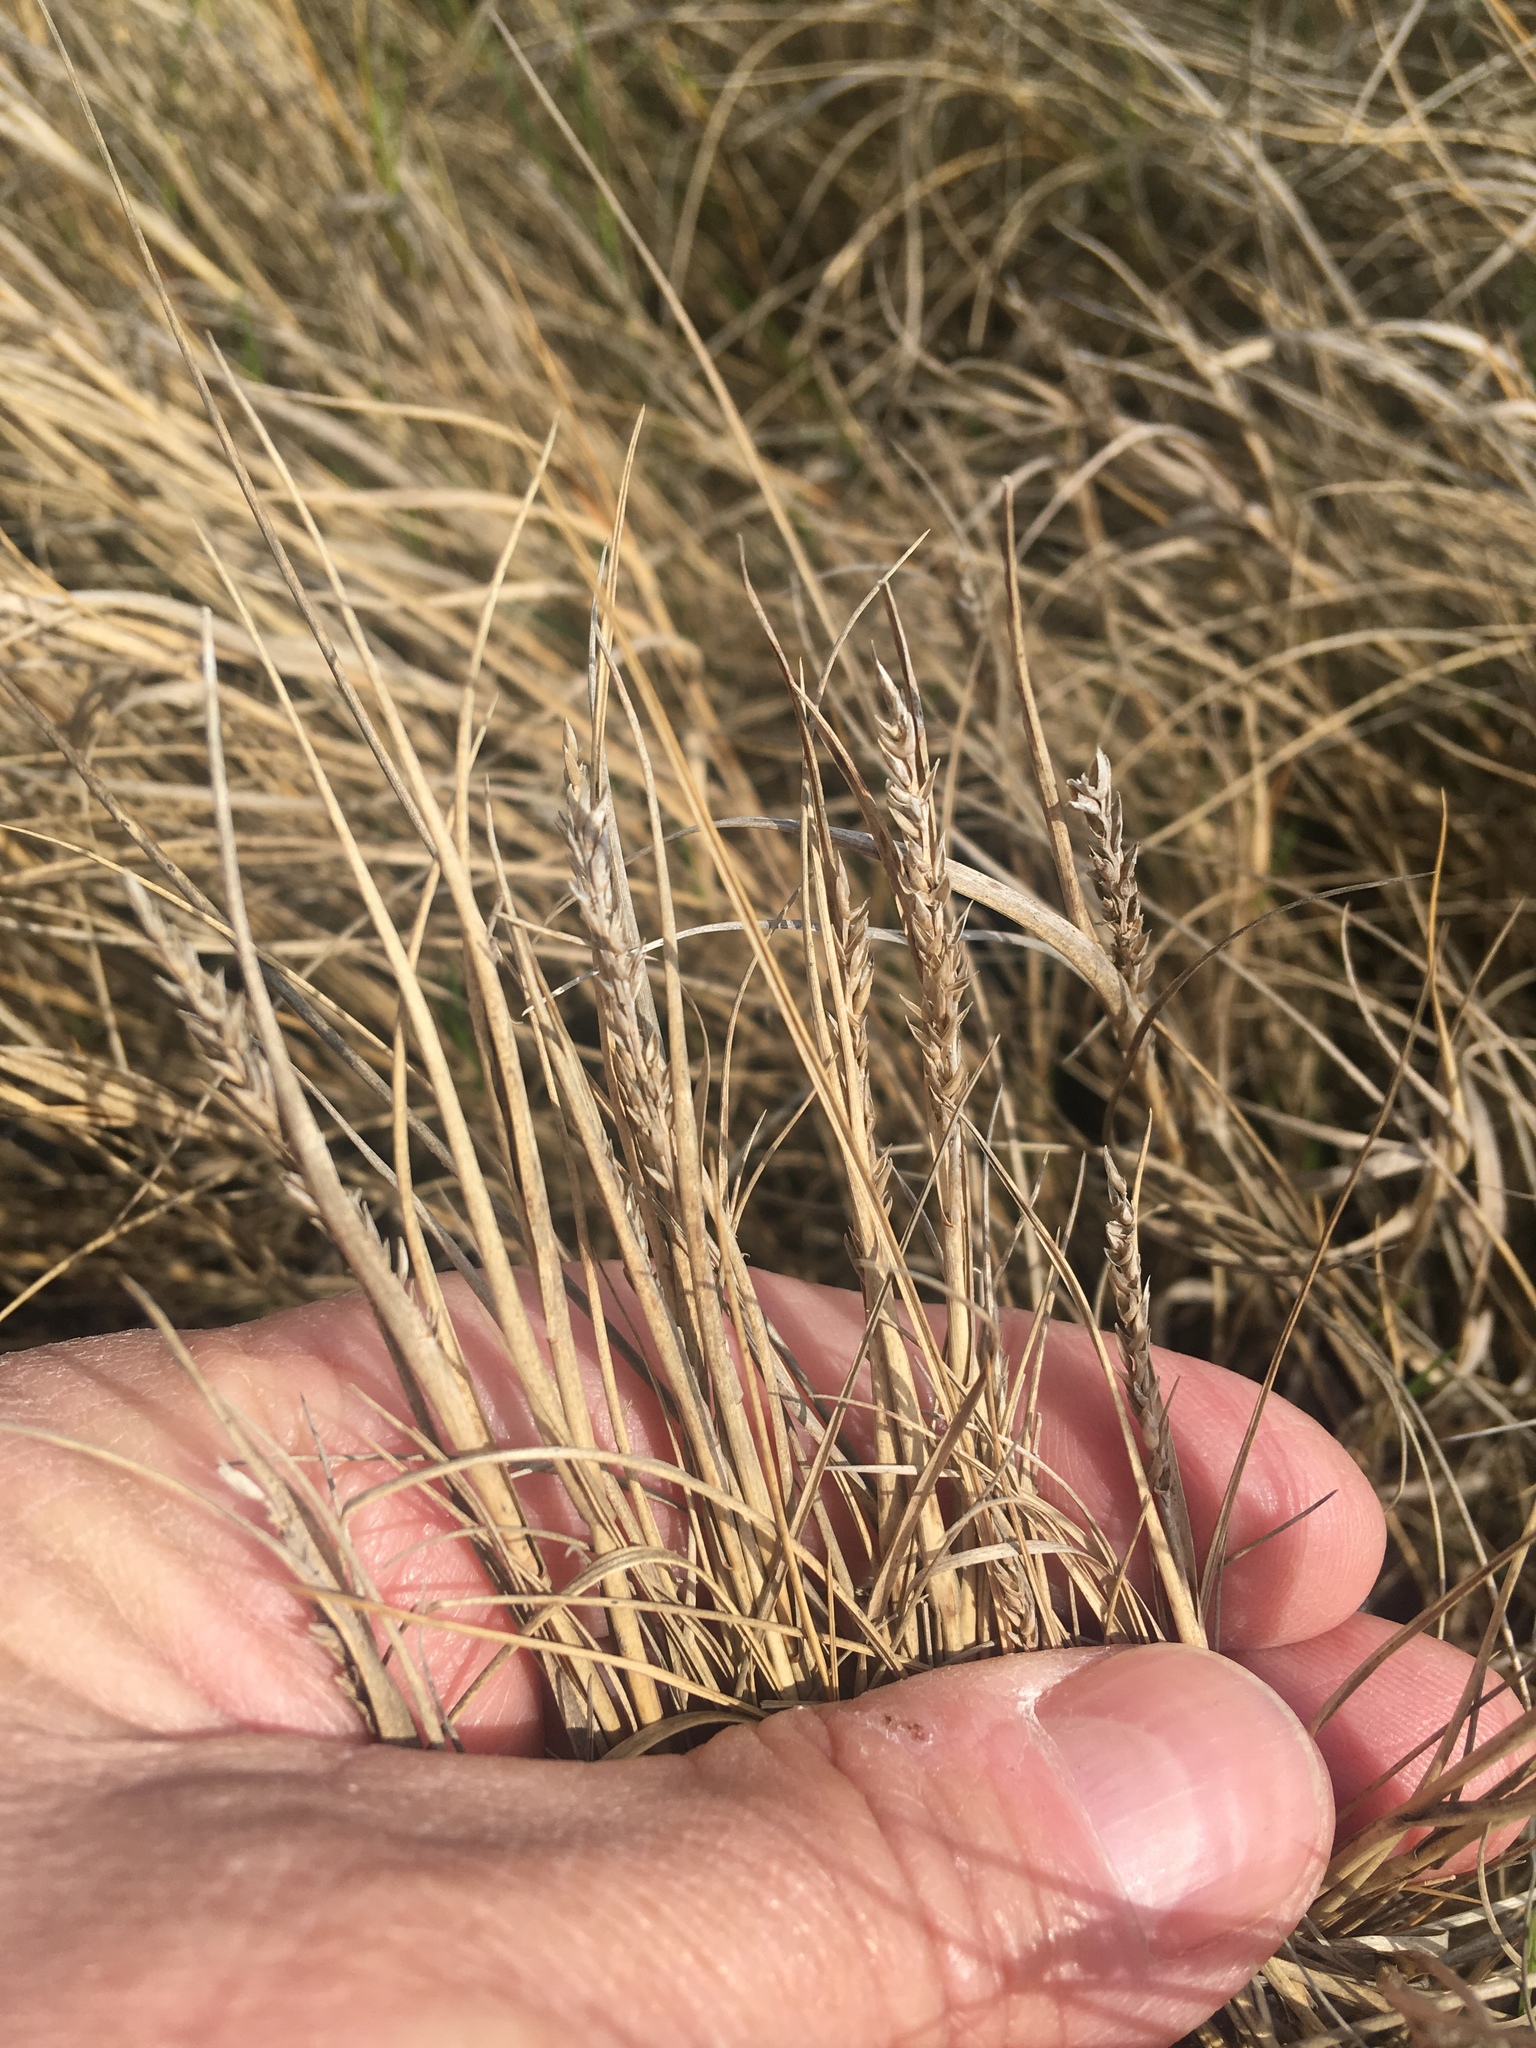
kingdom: Plantae
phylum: Tracheophyta
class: Liliopsida
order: Poales
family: Poaceae
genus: Distichlis
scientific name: Distichlis spicata
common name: Saltgrass
